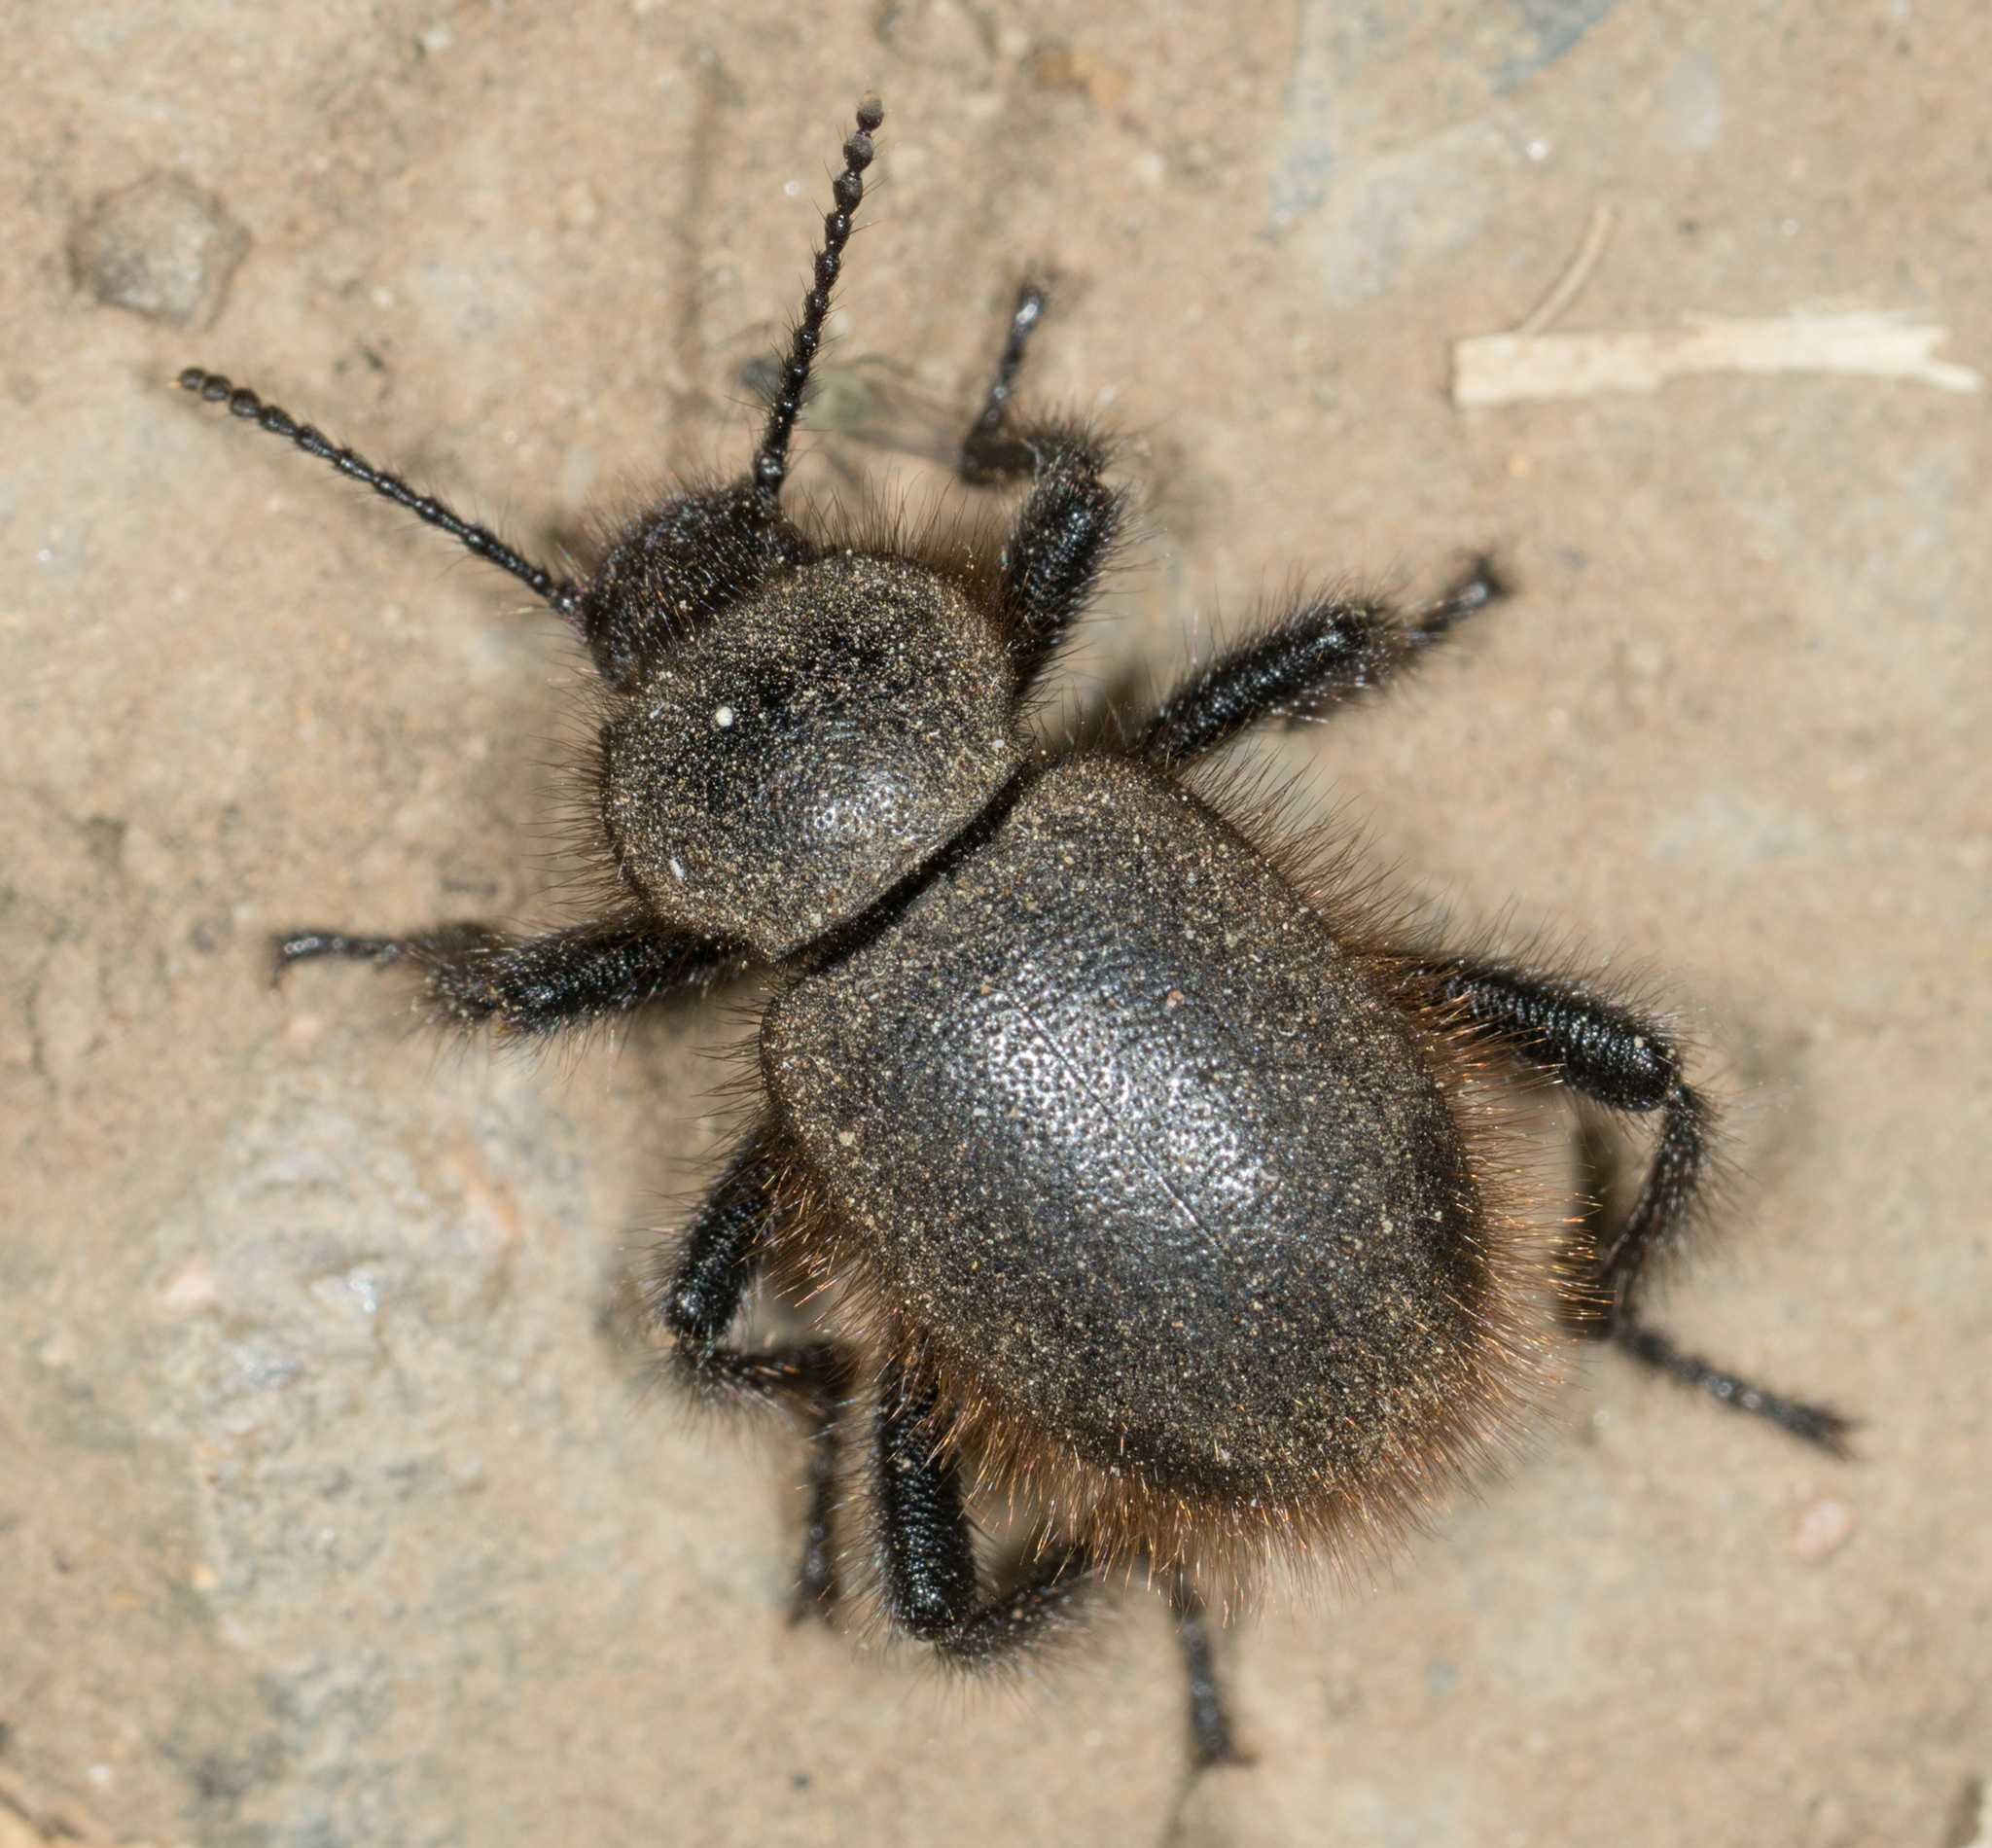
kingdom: Animalia
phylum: Arthropoda
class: Insecta
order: Coleoptera
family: Tenebrionidae
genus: Eleodes
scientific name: Eleodes osculans
